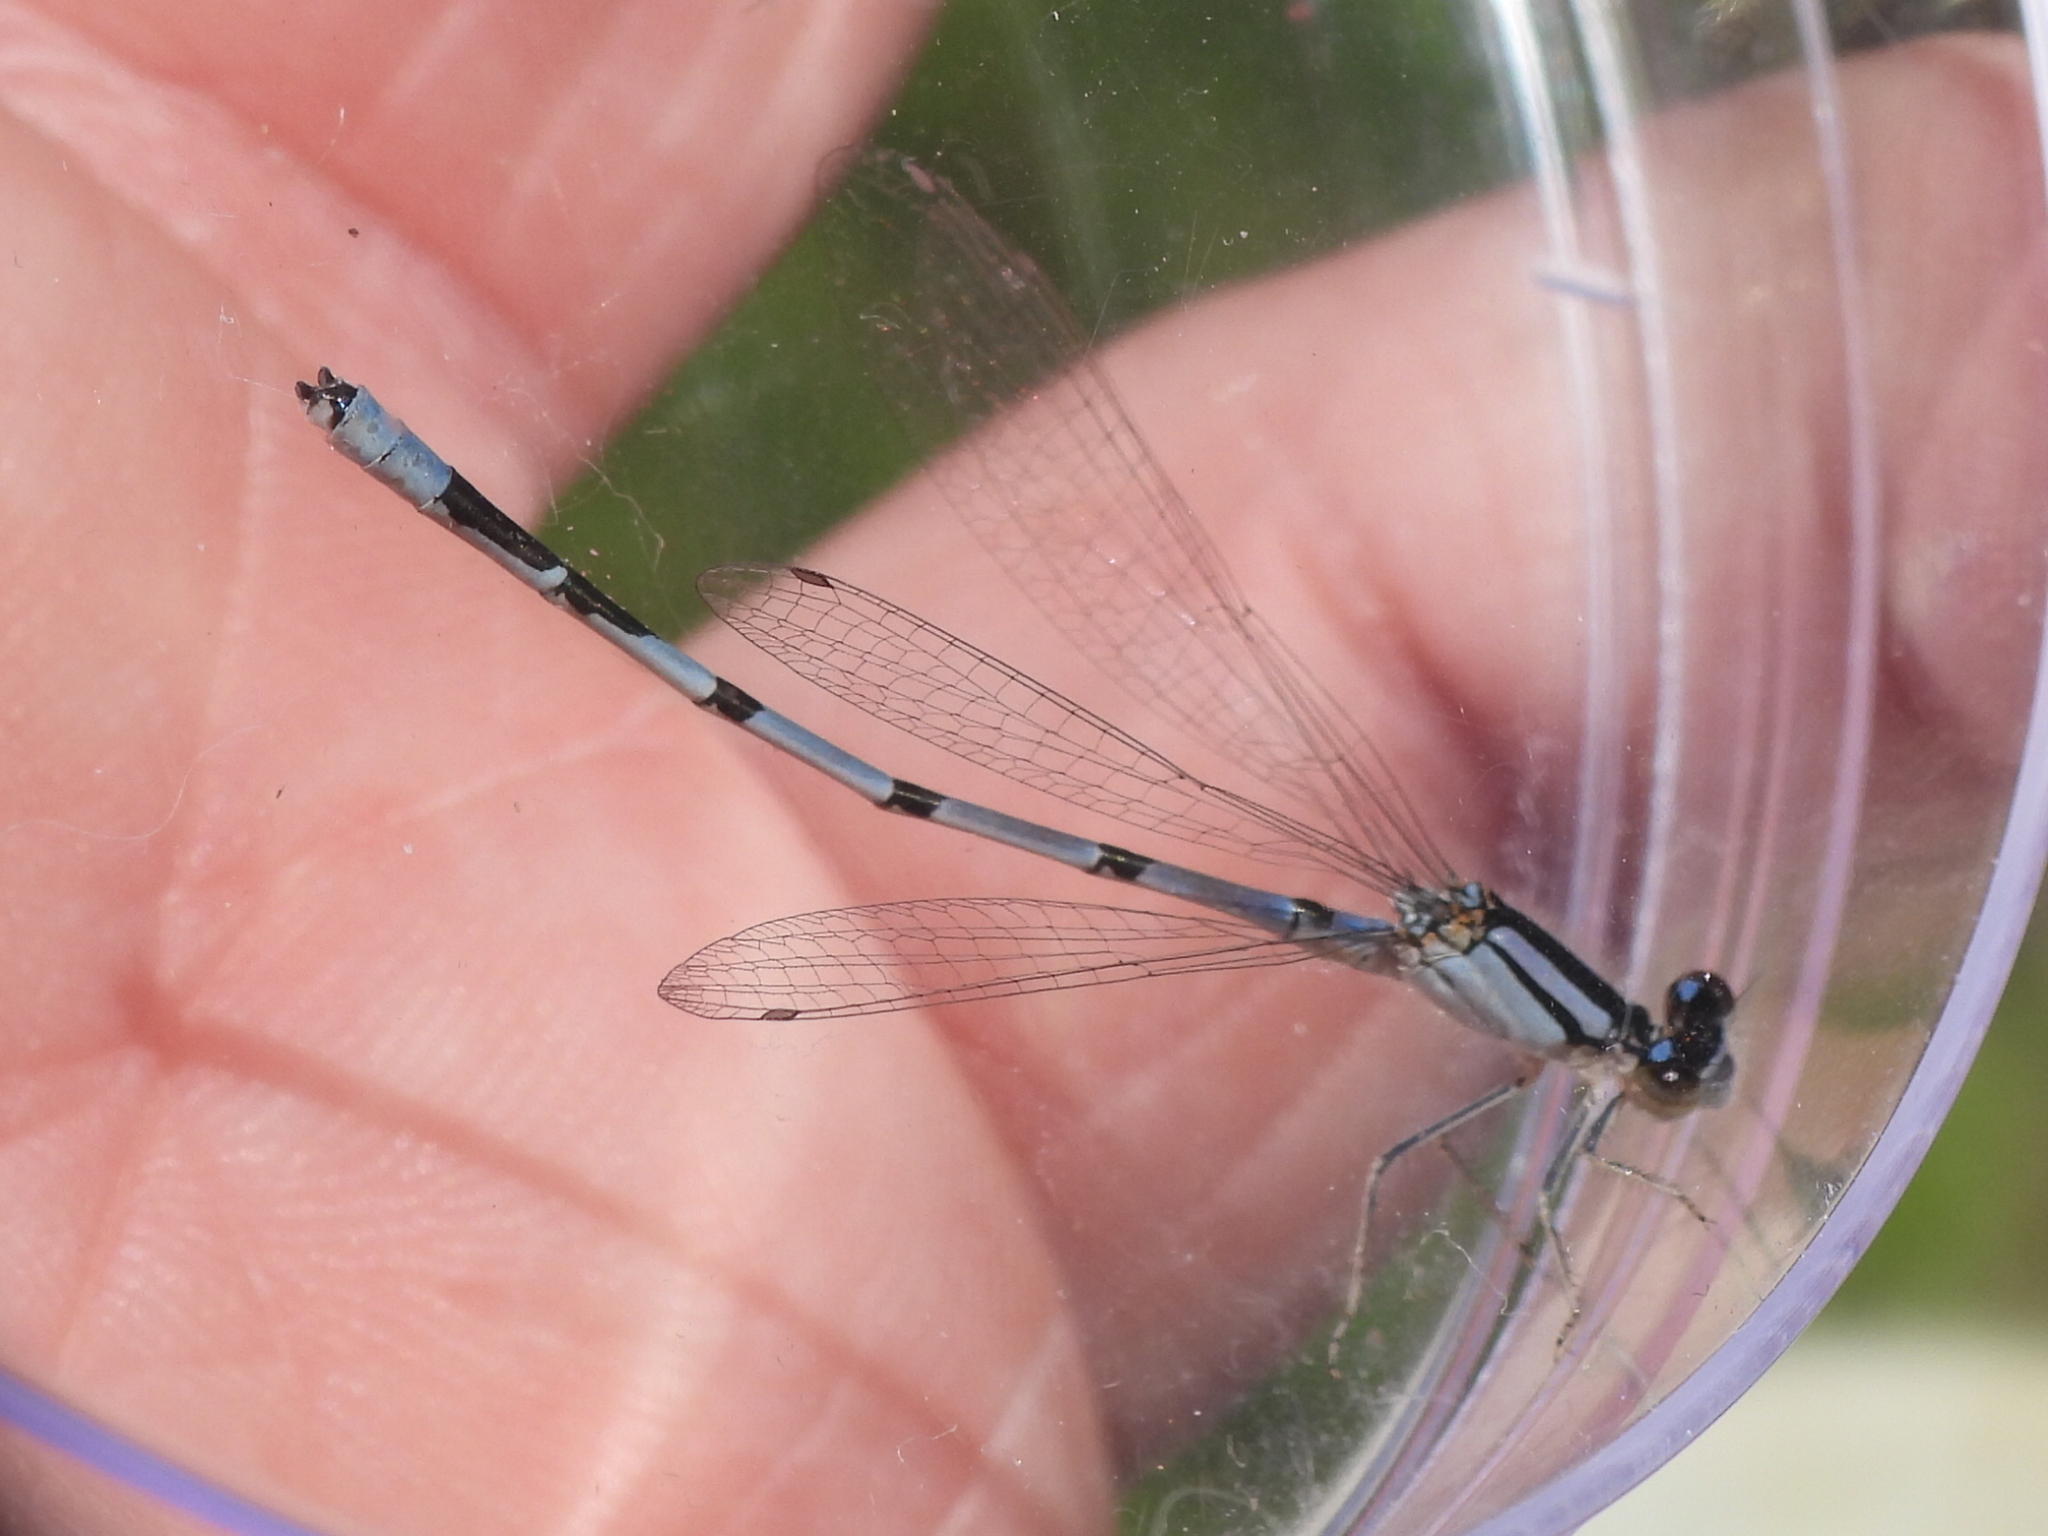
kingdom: Animalia
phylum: Arthropoda
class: Insecta
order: Odonata
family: Coenagrionidae
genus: Enallagma
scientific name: Enallagma civile
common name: Damselfly
